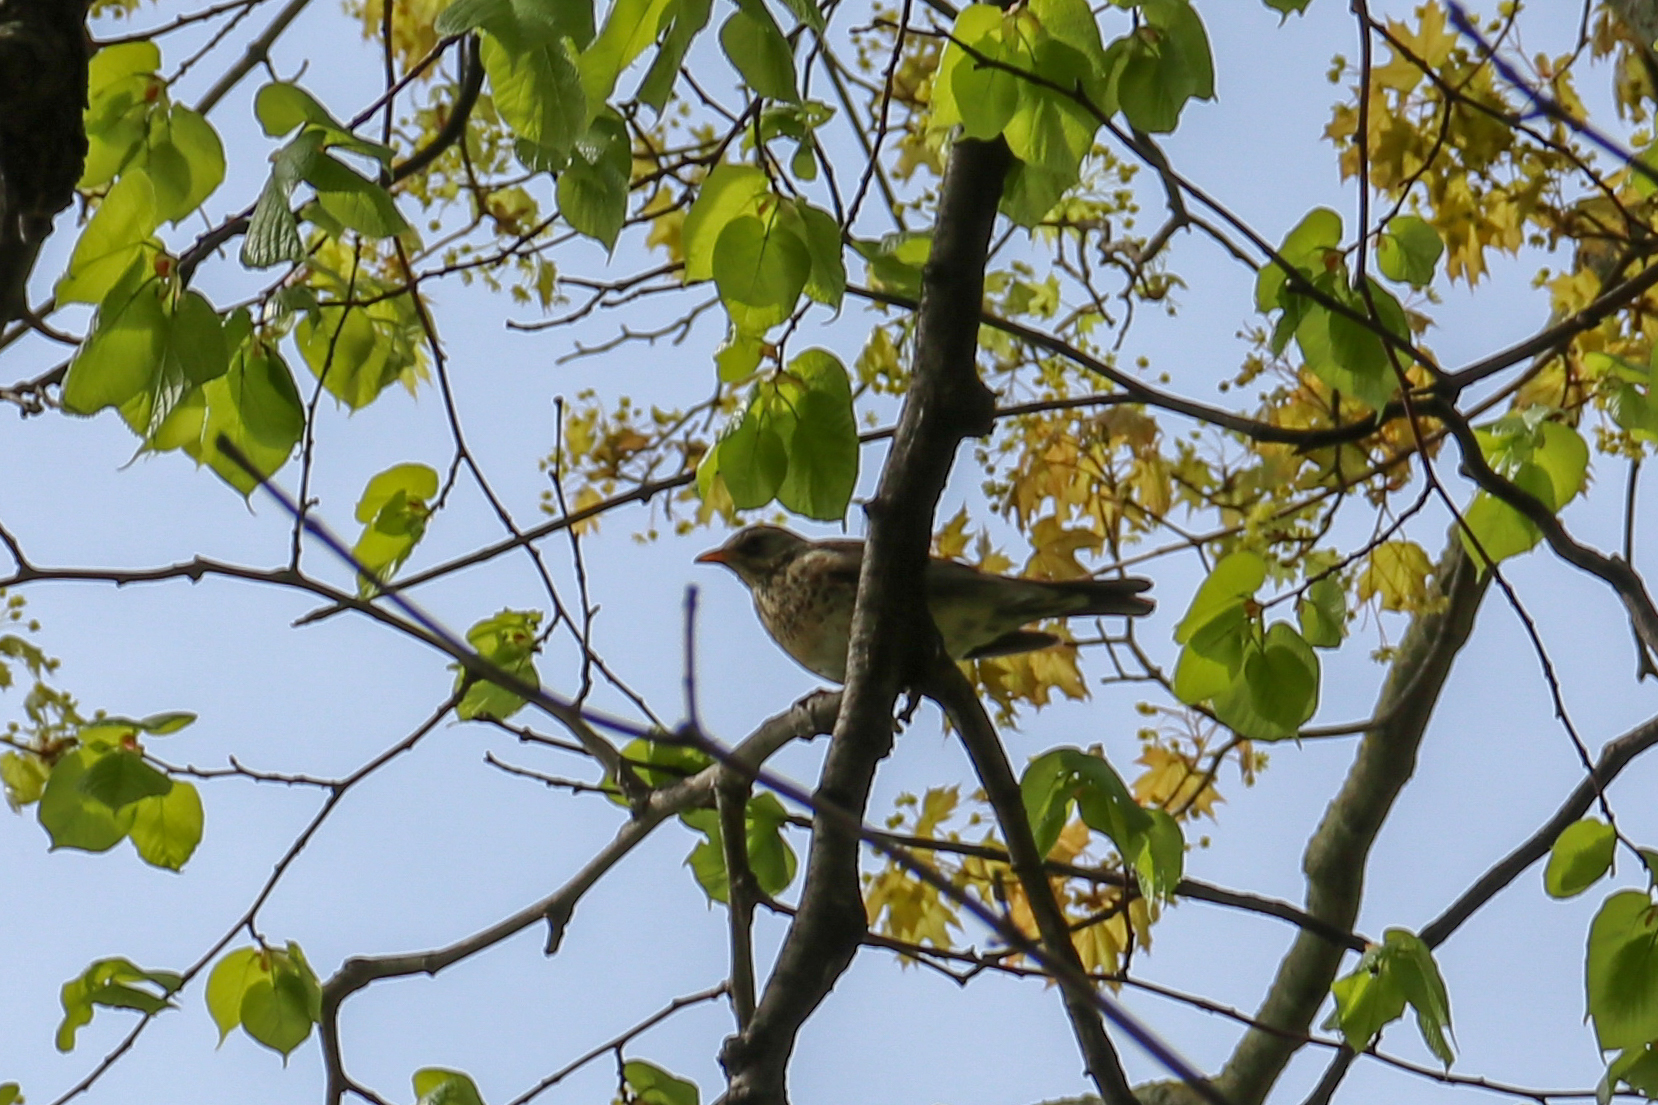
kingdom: Animalia
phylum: Chordata
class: Aves
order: Passeriformes
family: Turdidae
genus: Turdus
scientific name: Turdus pilaris
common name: Fieldfare
